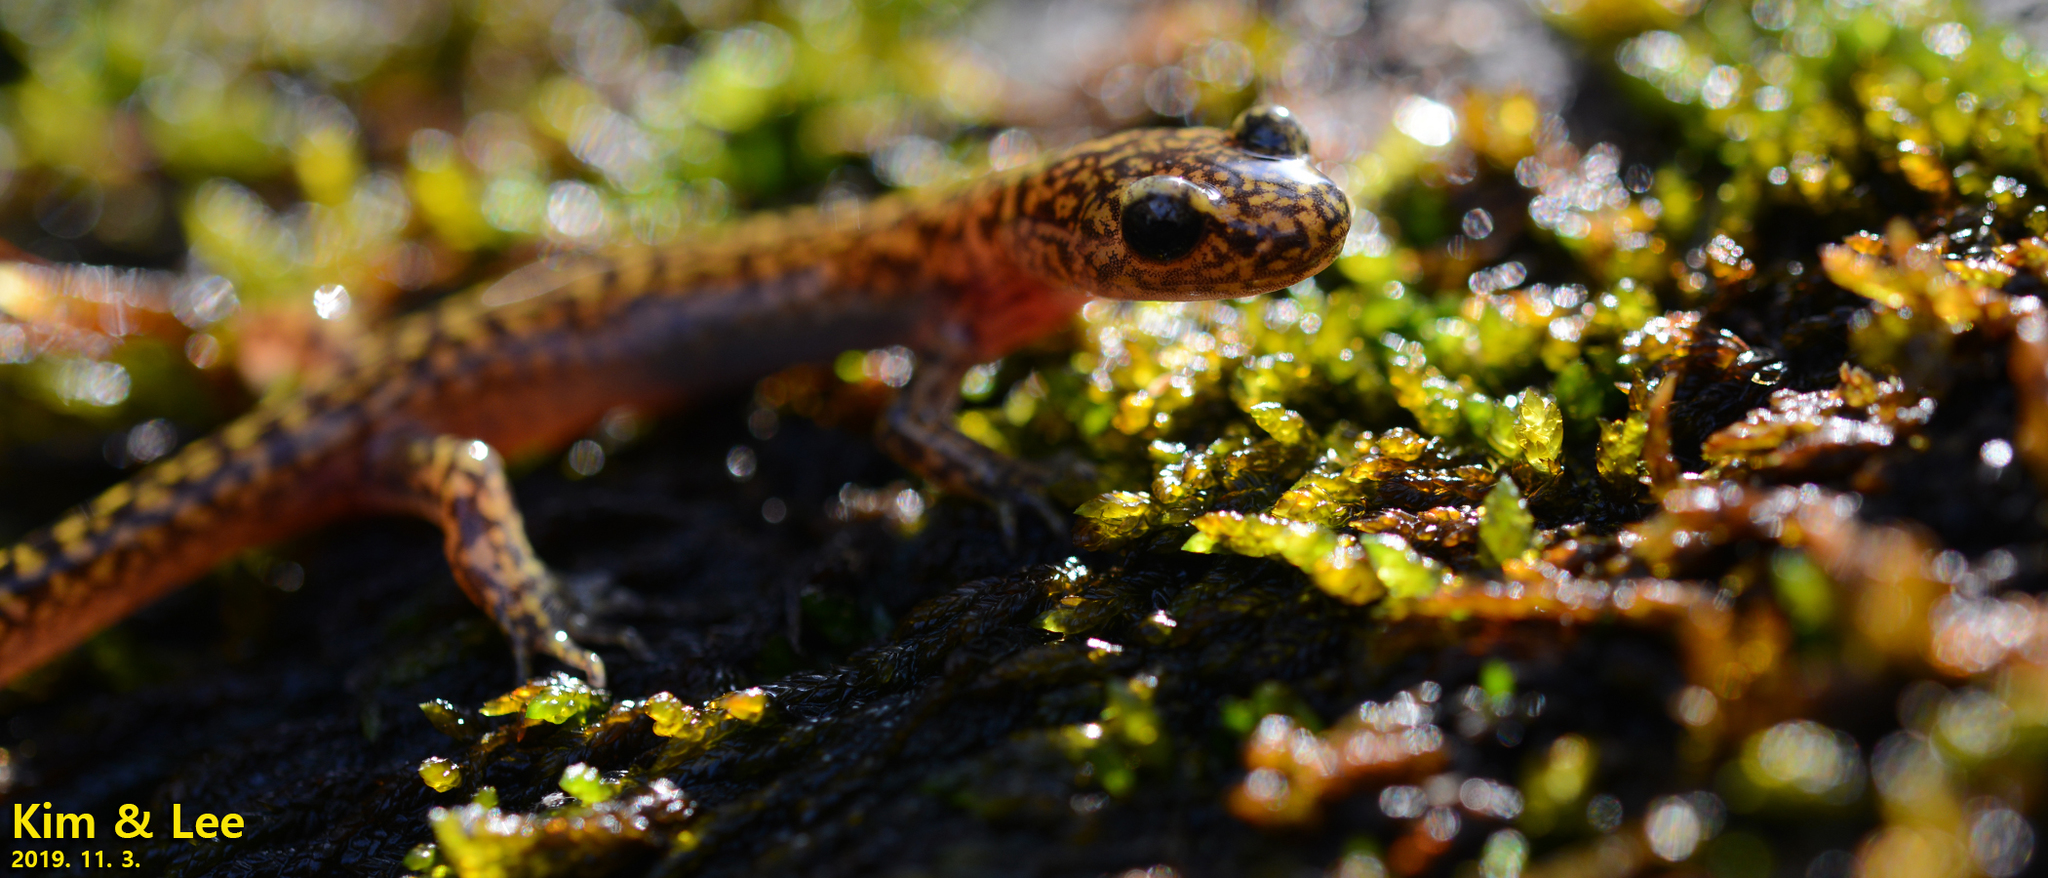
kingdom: Animalia
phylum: Chordata
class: Amphibia
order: Caudata
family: Hynobiidae
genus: Onychodactylus
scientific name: Onychodactylus koreanus
